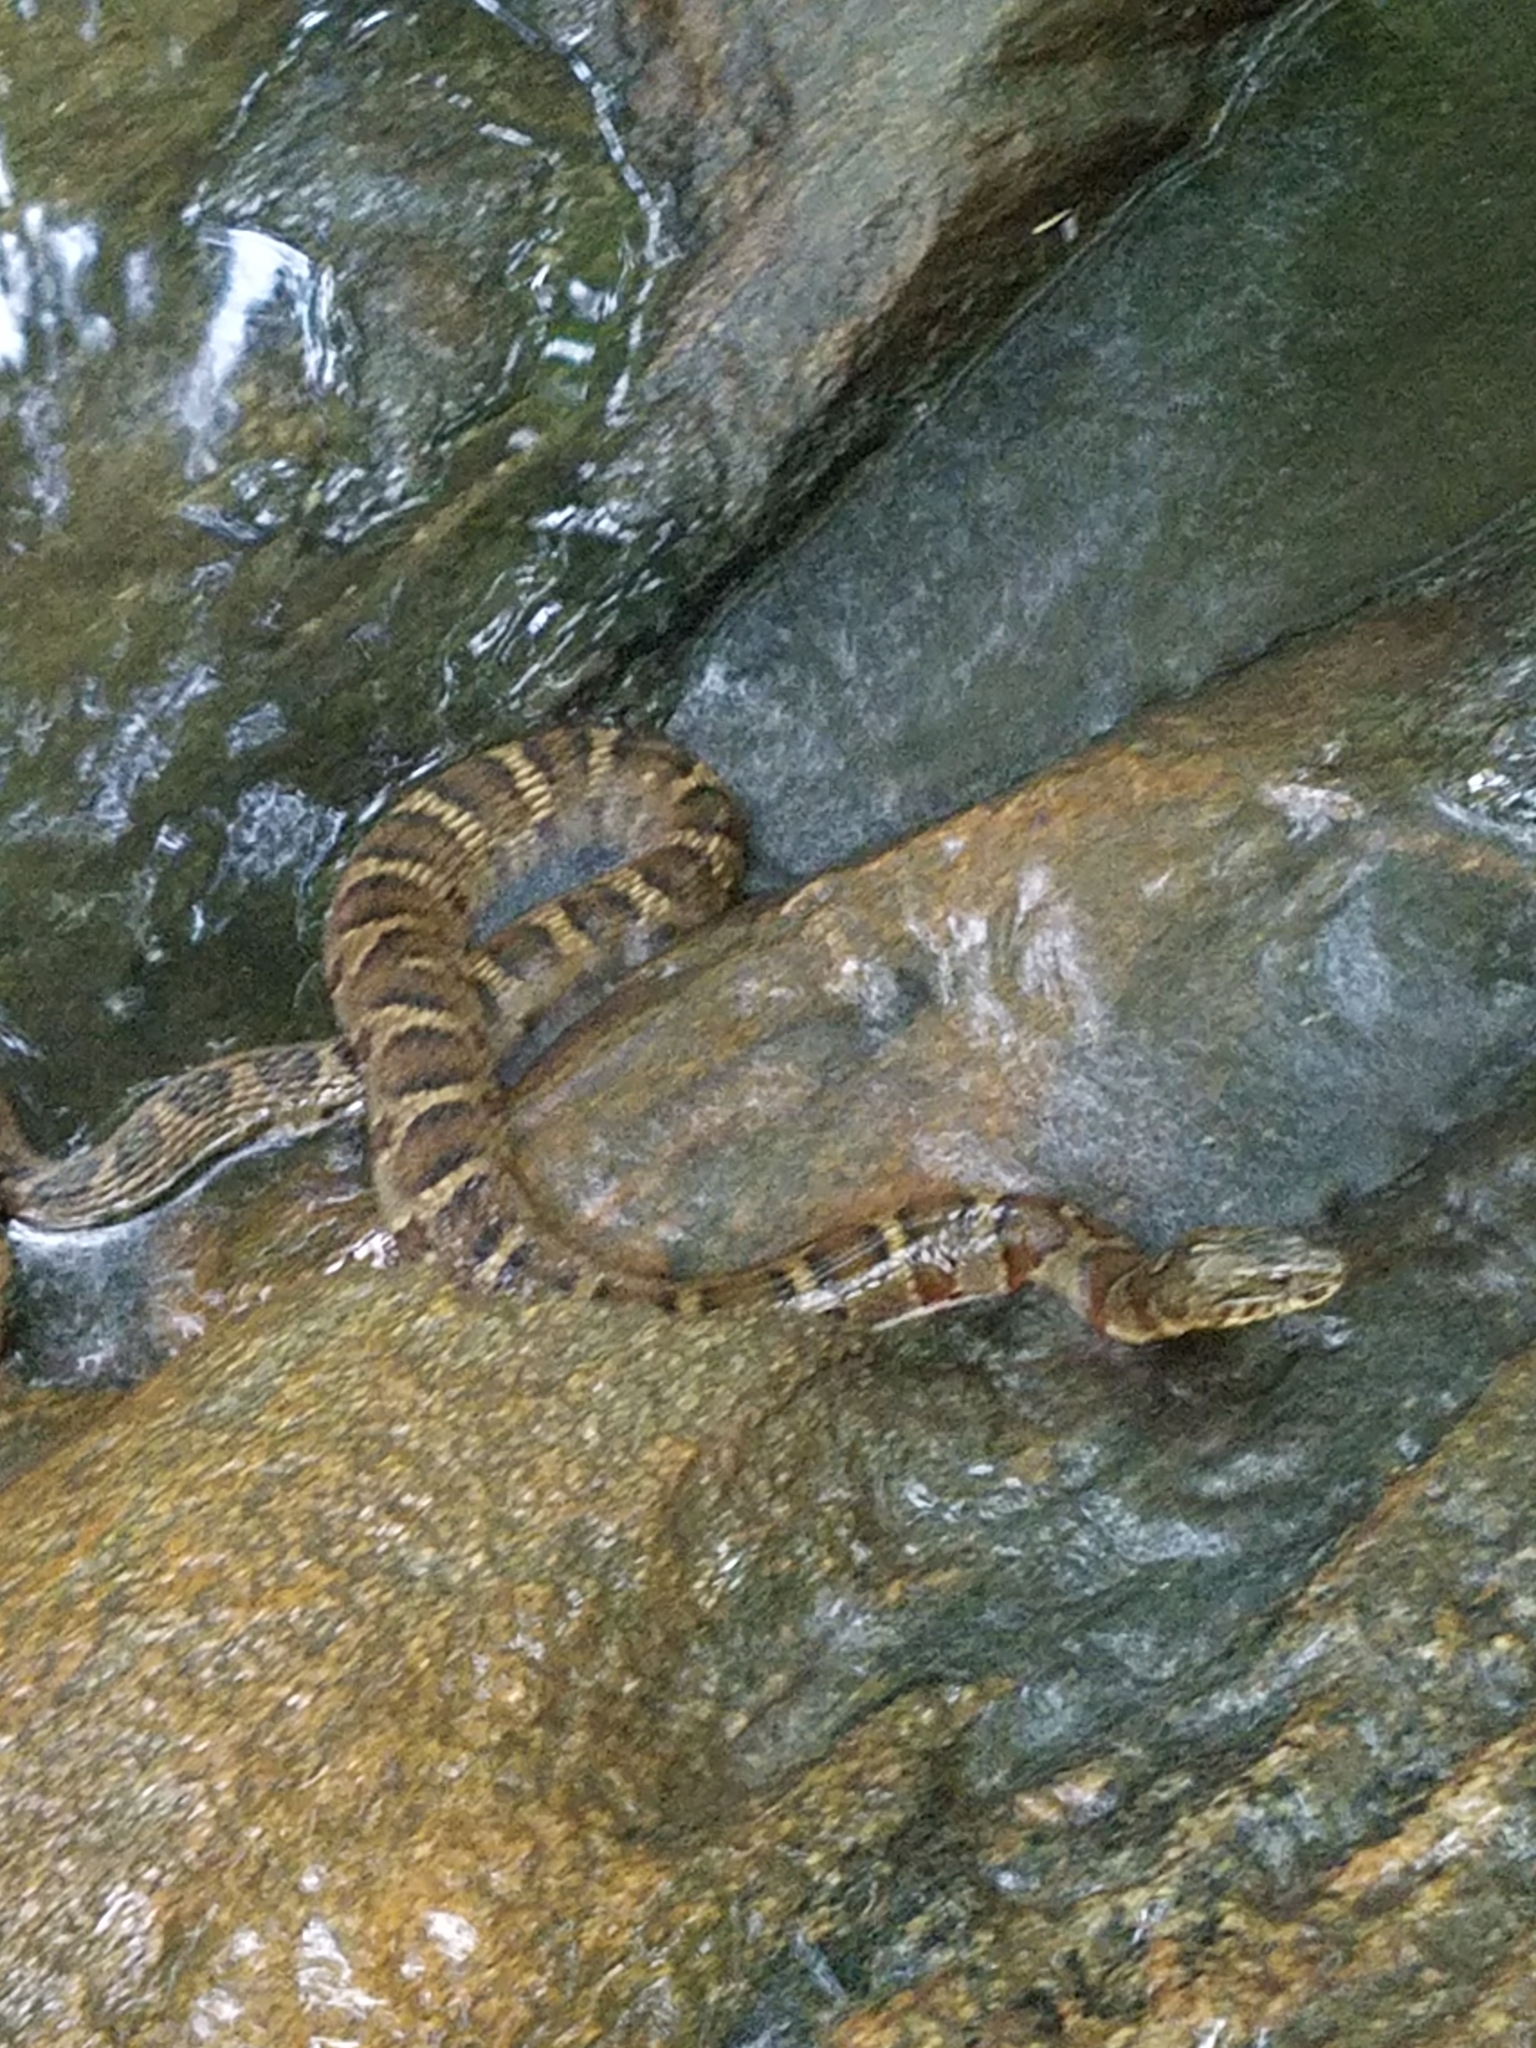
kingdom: Animalia
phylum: Chordata
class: Squamata
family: Colubridae
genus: Nerodia
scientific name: Nerodia sipedon
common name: Northern water snake
